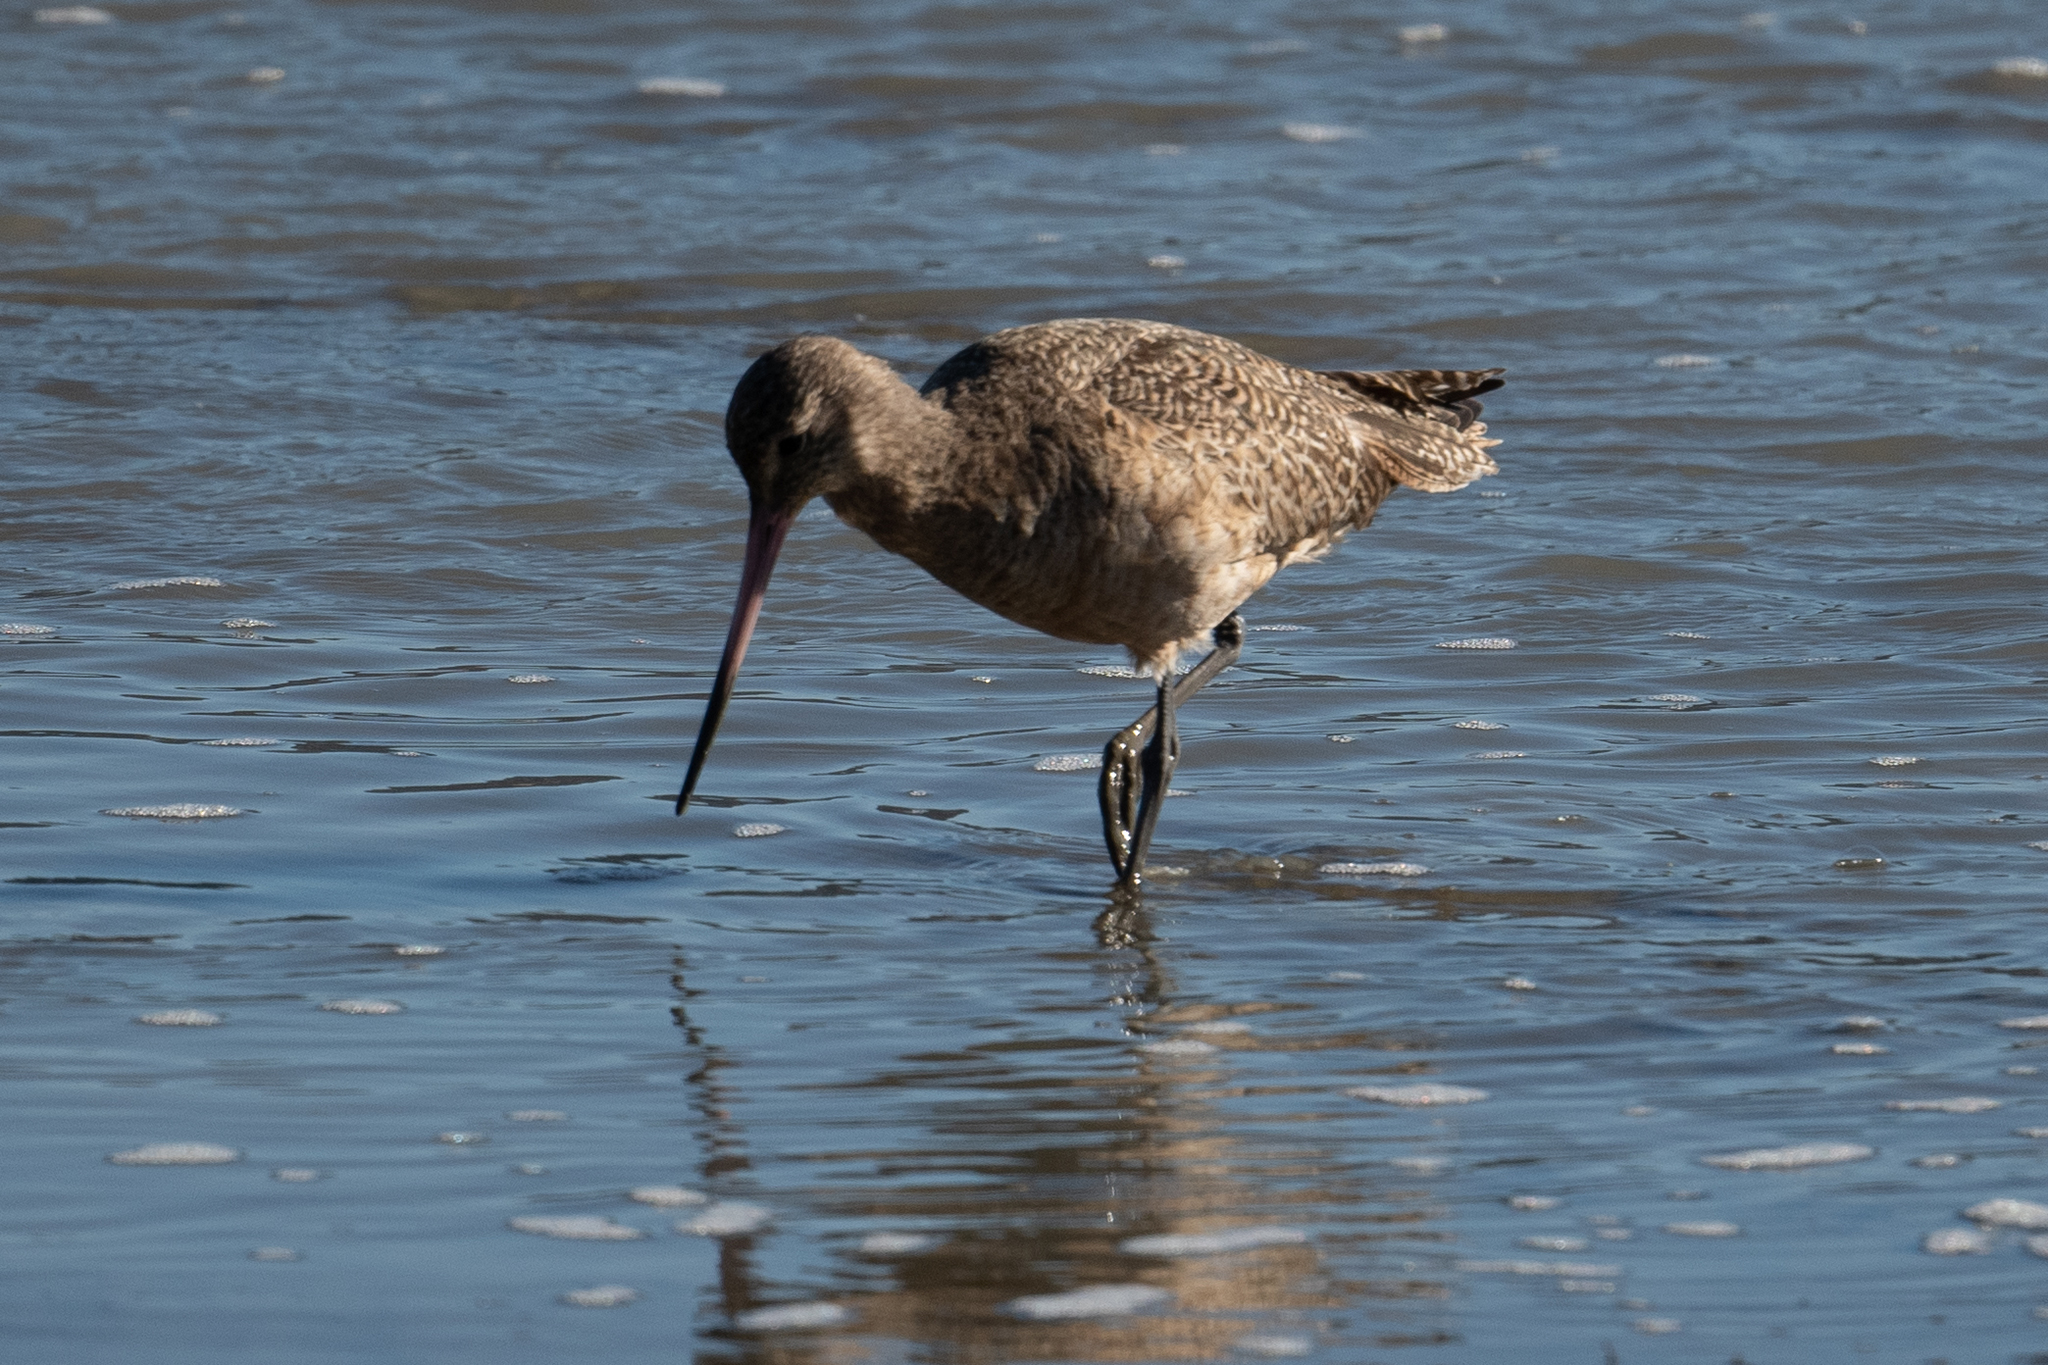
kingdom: Animalia
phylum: Chordata
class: Aves
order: Charadriiformes
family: Scolopacidae
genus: Limosa
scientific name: Limosa fedoa
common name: Marbled godwit
